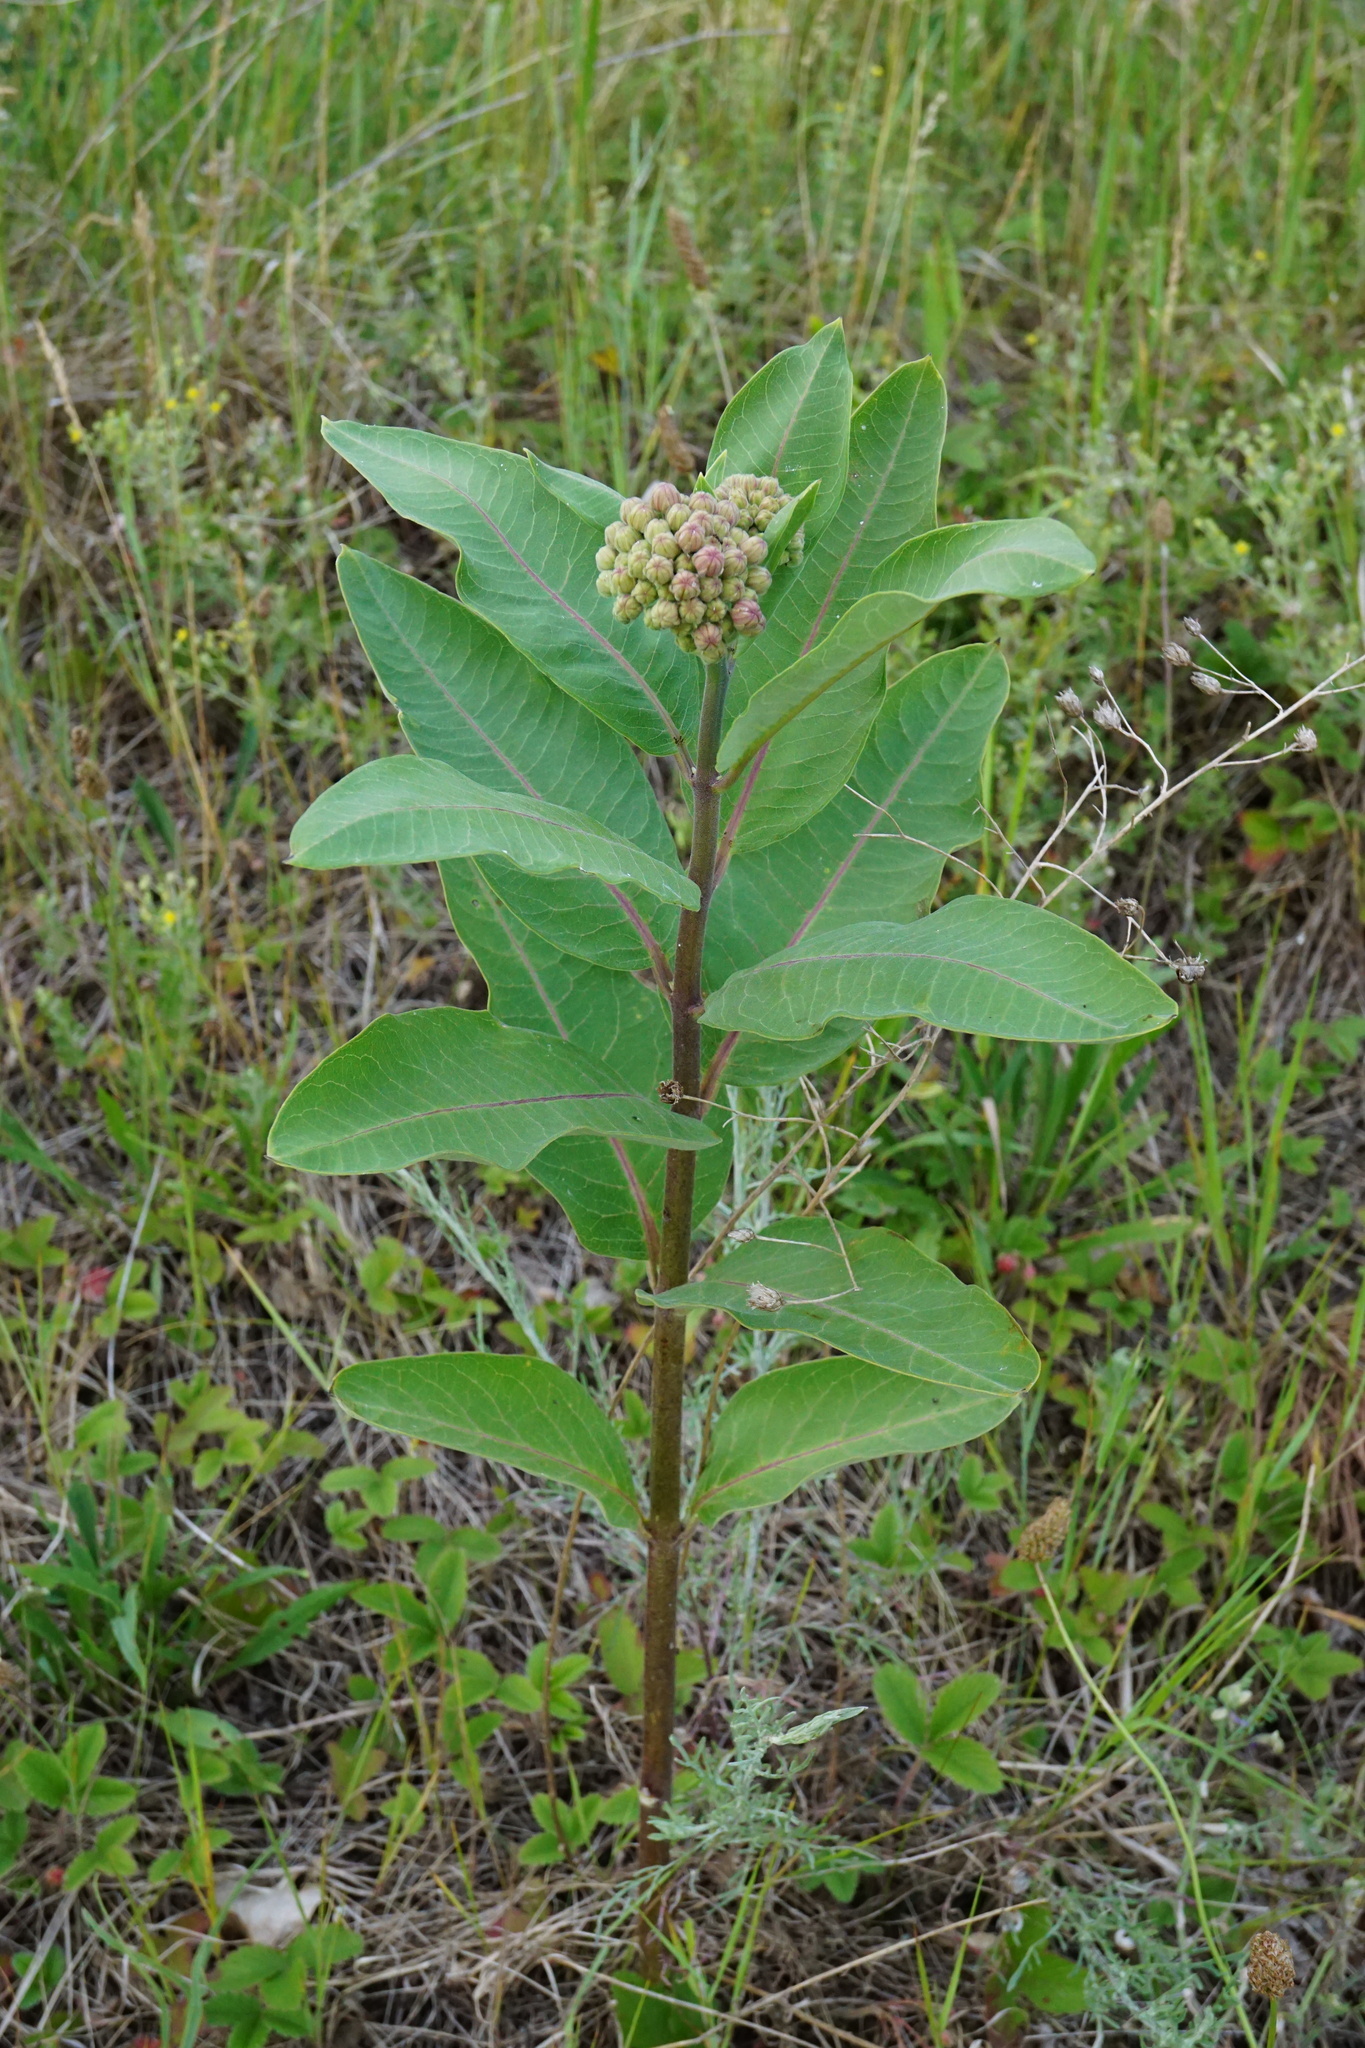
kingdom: Plantae
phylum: Tracheophyta
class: Magnoliopsida
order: Gentianales
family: Apocynaceae
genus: Asclepias
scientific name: Asclepias syriaca
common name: Common milkweed
